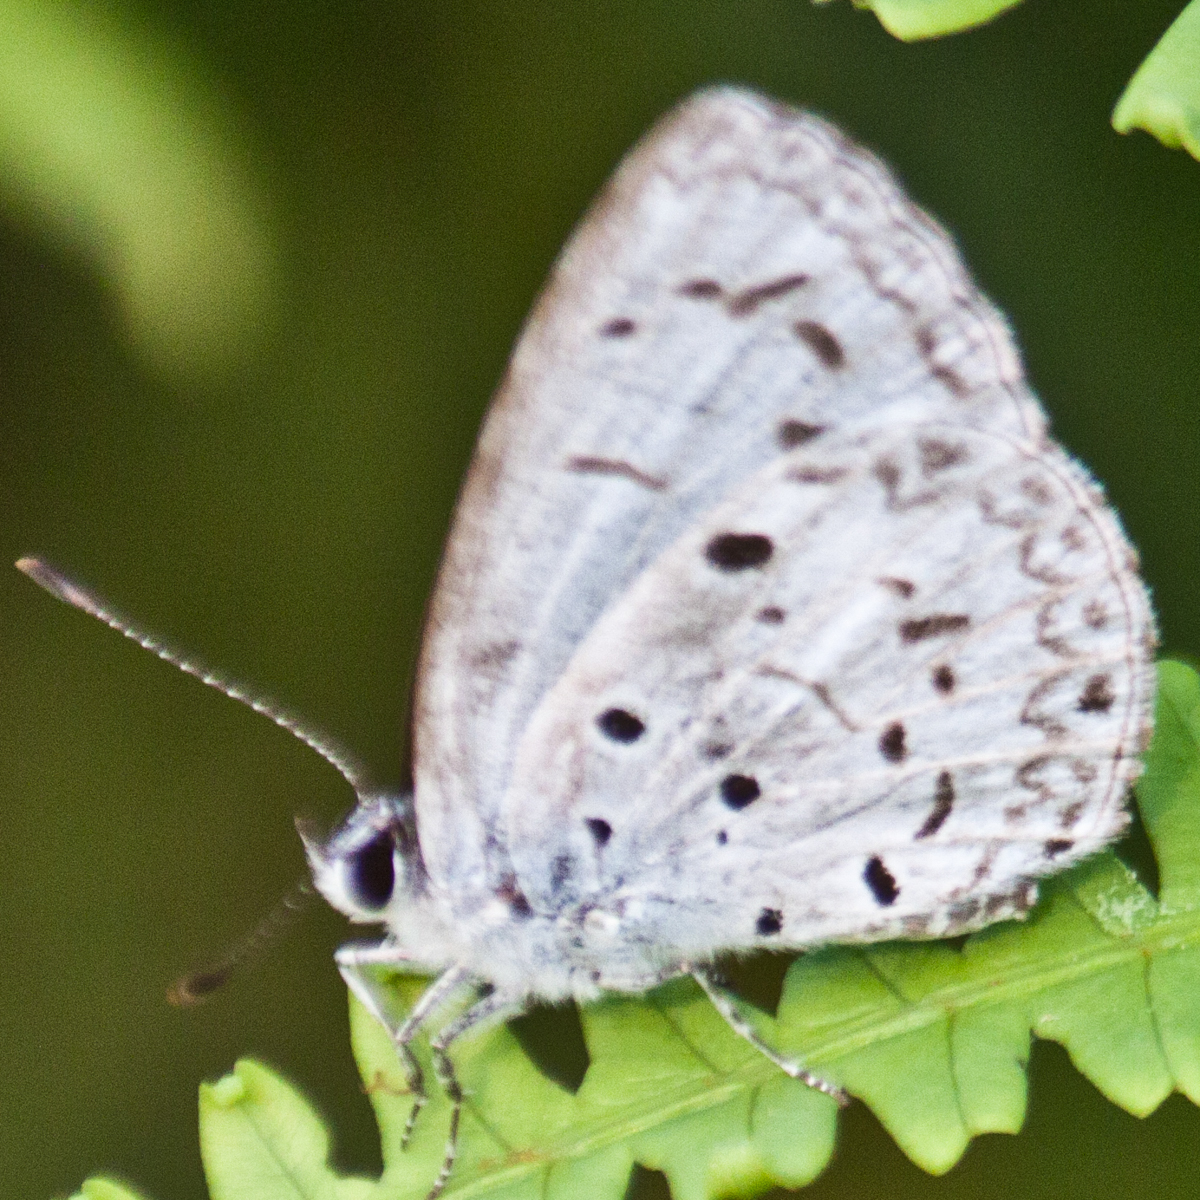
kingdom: Animalia
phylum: Arthropoda
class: Insecta
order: Lepidoptera
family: Lycaenidae
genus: Acytolepis
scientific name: Acytolepis puspa
